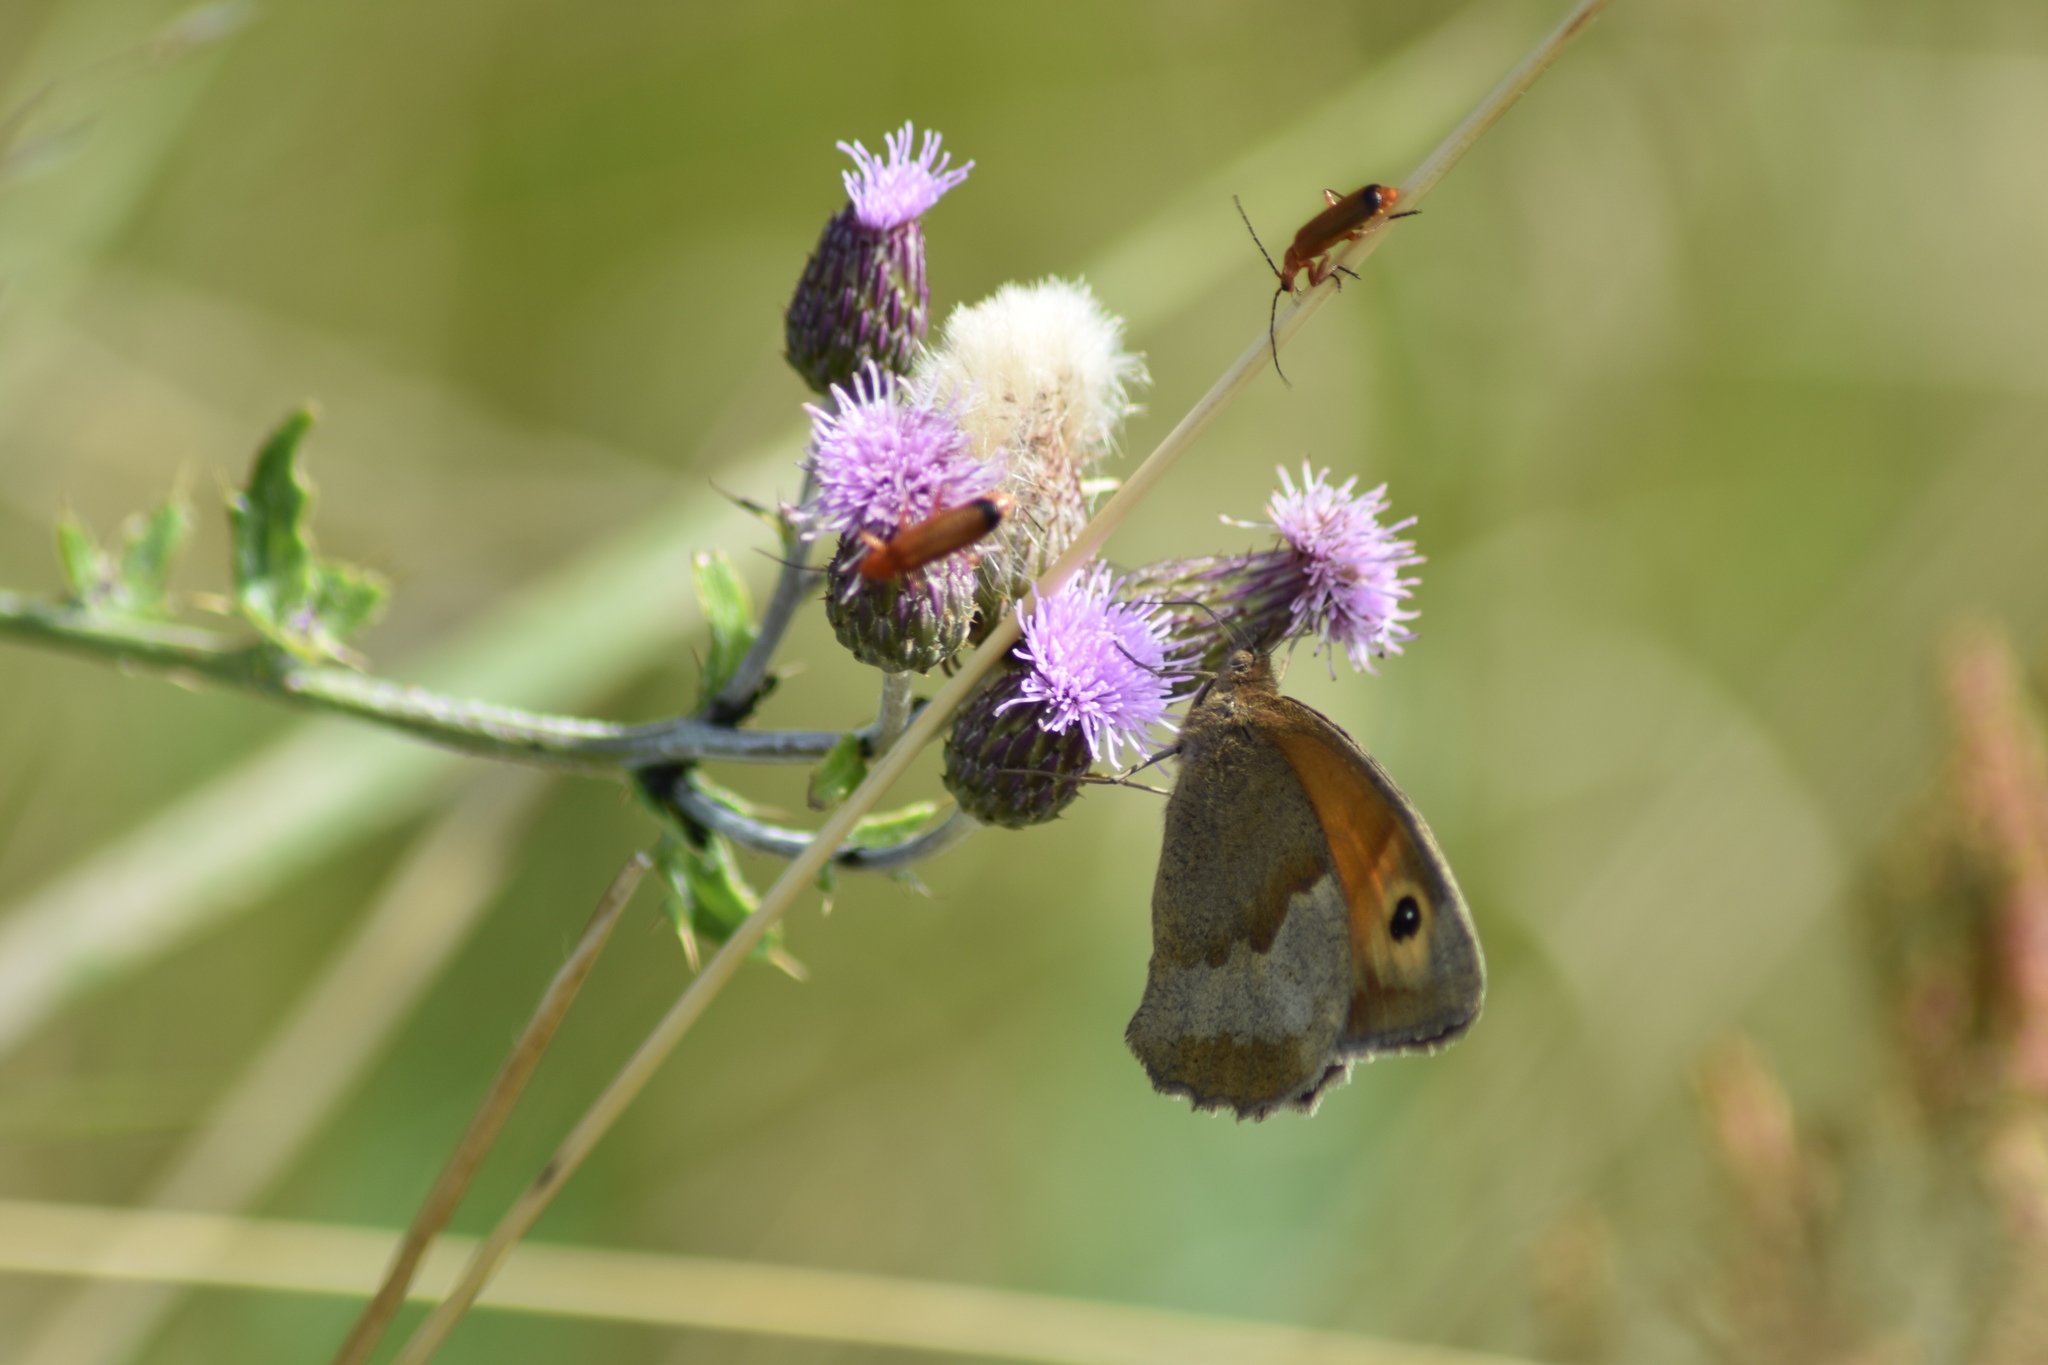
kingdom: Animalia
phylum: Arthropoda
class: Insecta
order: Lepidoptera
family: Nymphalidae
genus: Maniola
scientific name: Maniola jurtina
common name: Meadow brown
